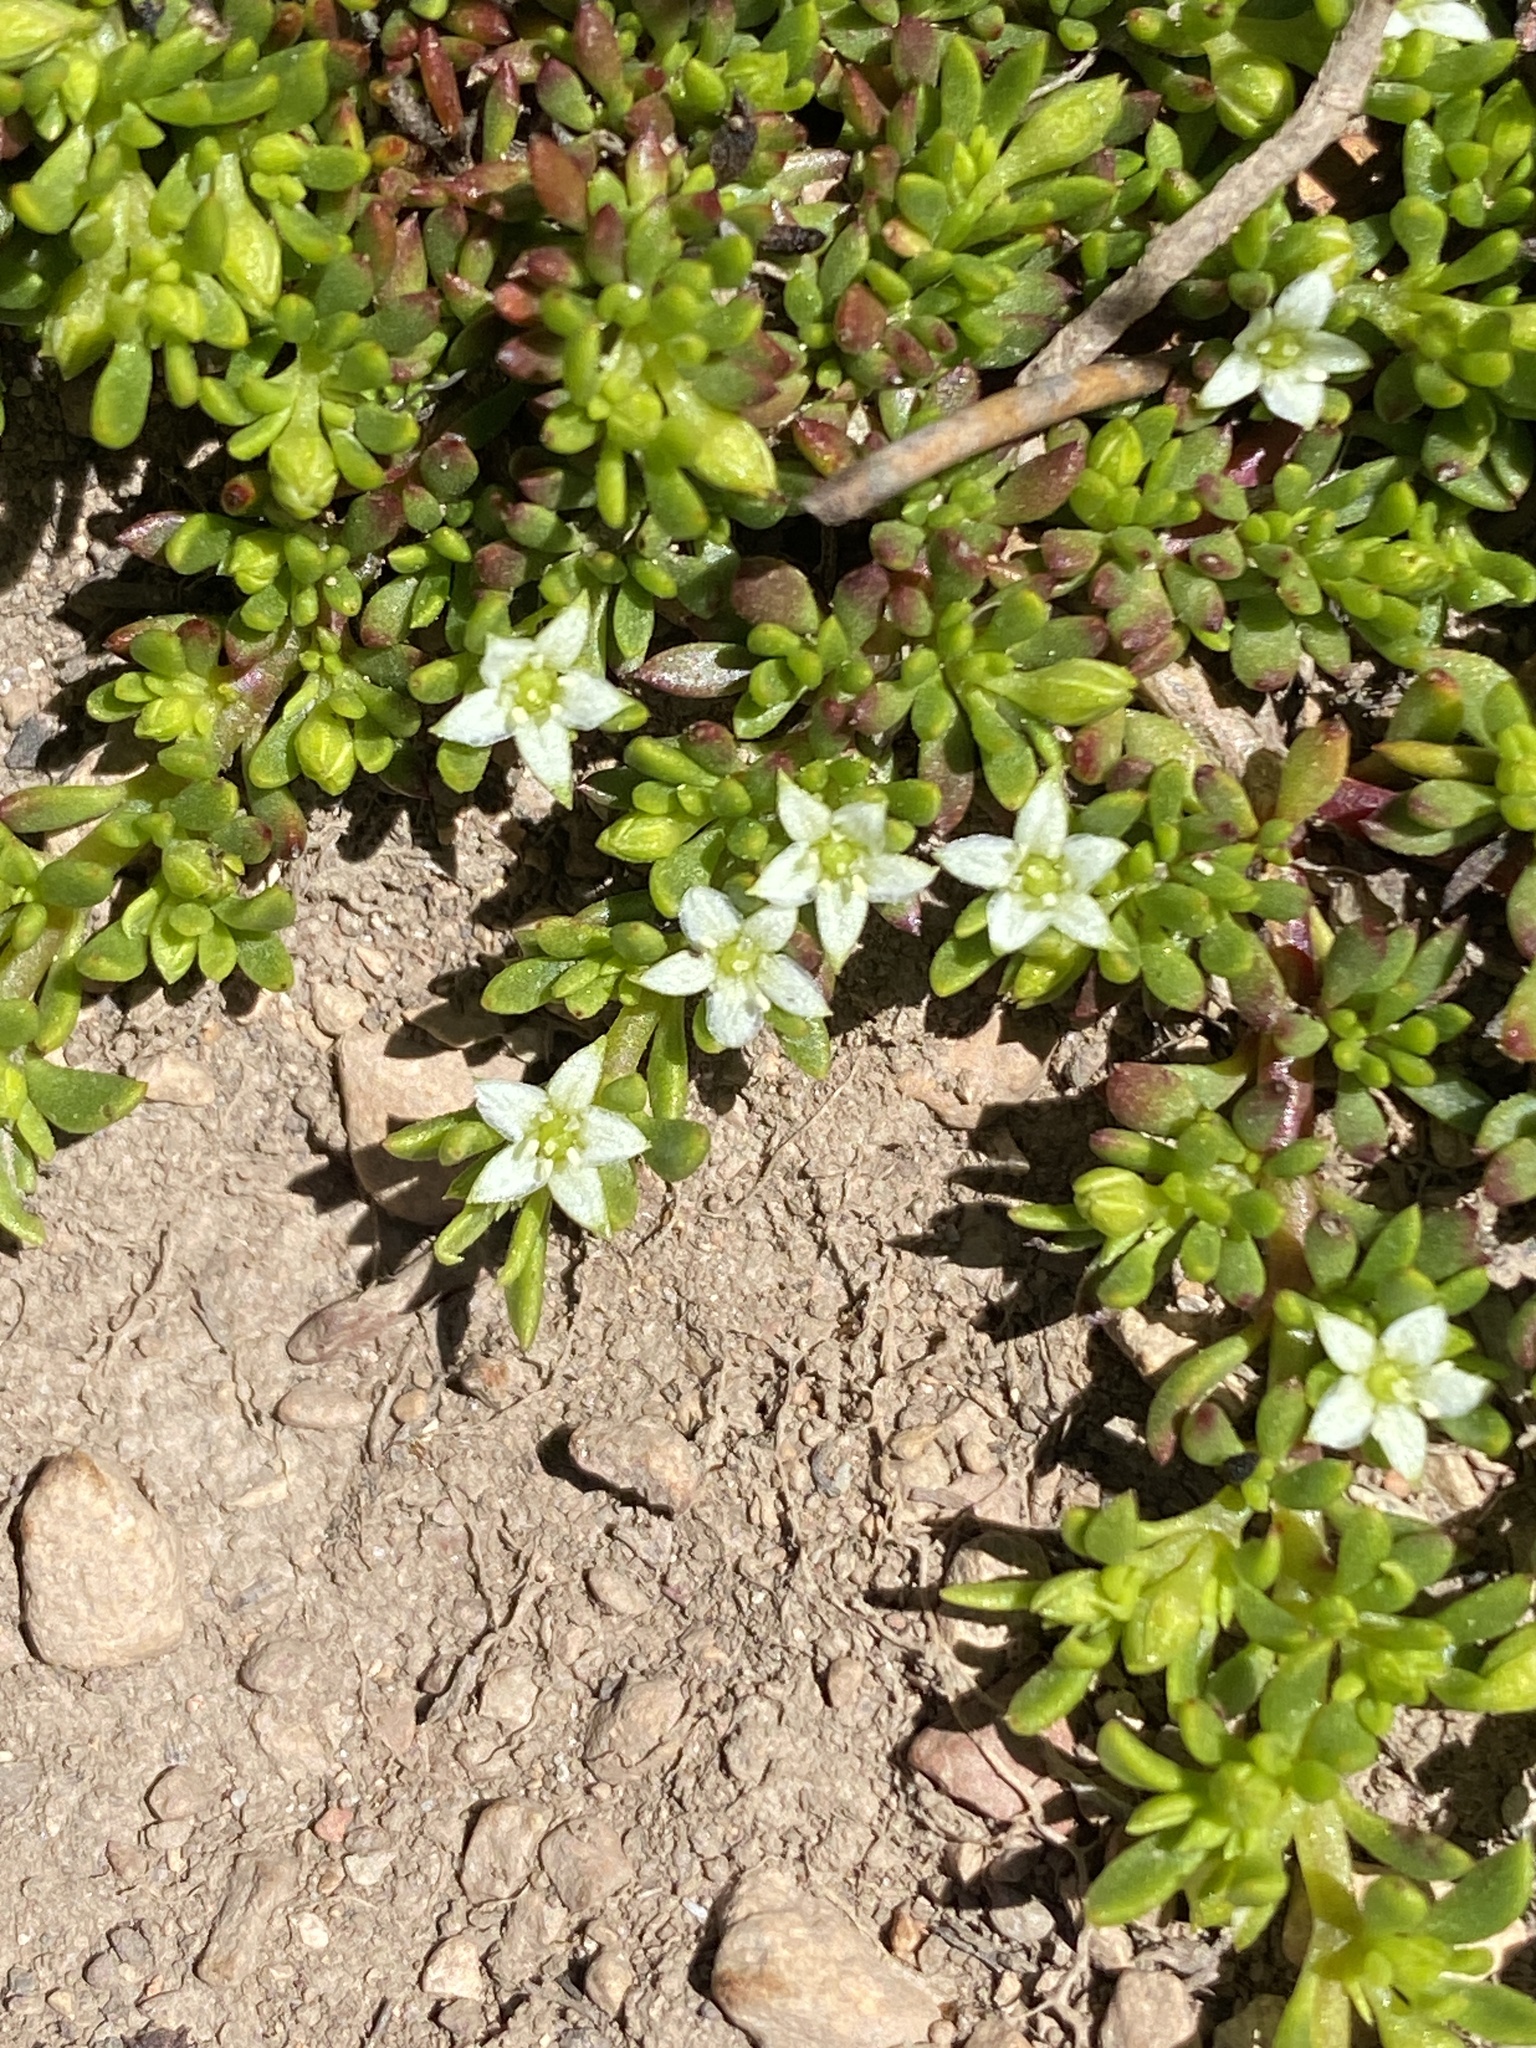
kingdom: Plantae
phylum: Tracheophyta
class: Magnoliopsida
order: Caryophyllales
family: Aizoaceae
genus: Acrosanthes
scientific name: Acrosanthes parviflora
